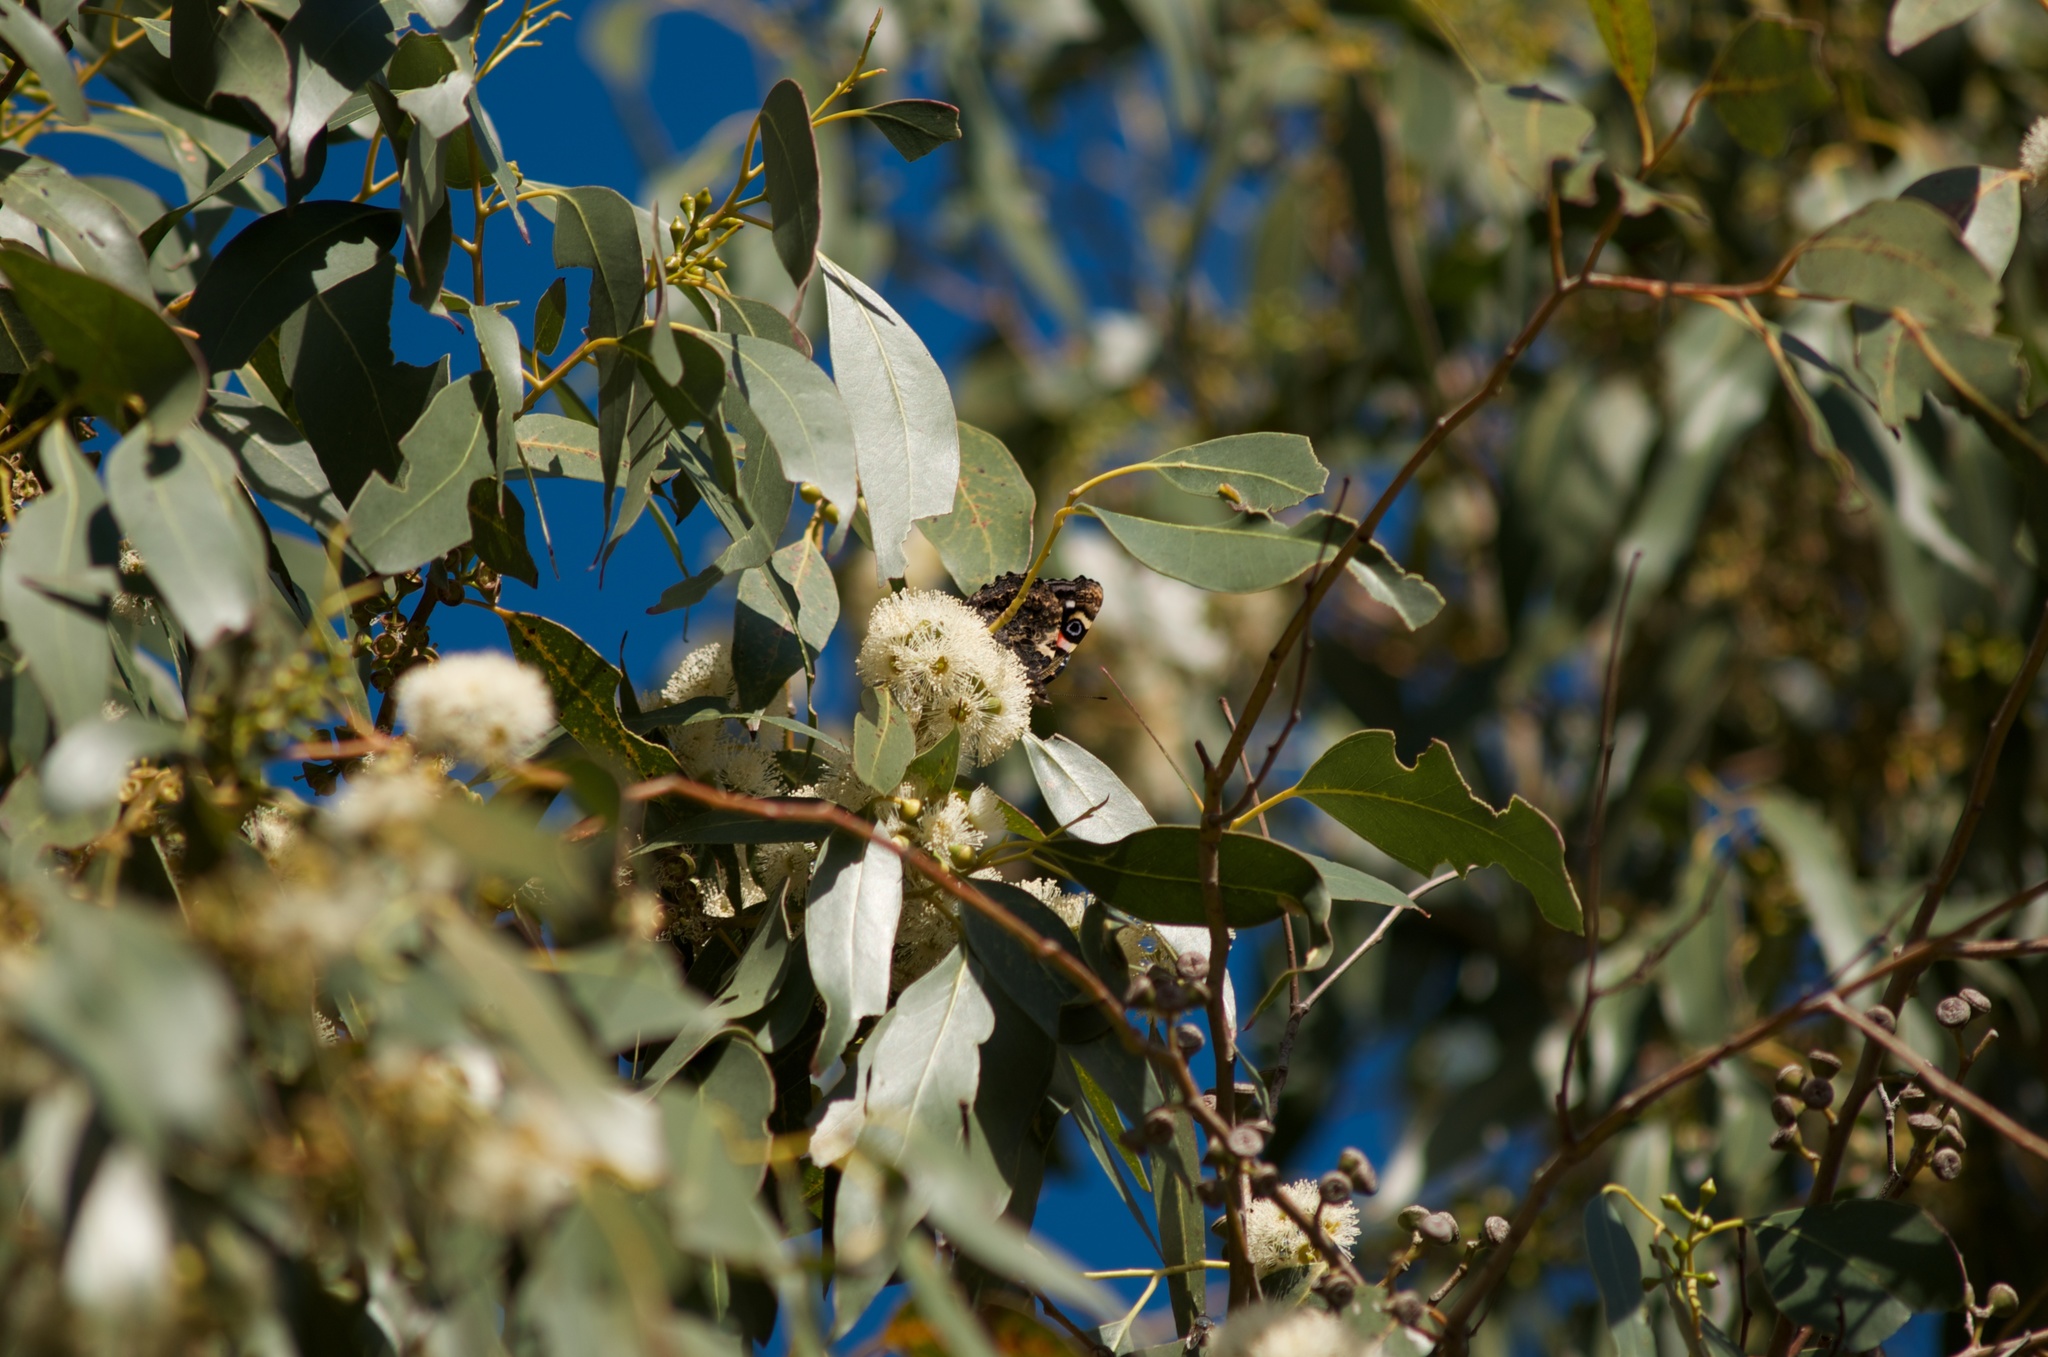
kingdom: Animalia
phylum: Arthropoda
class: Insecta
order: Lepidoptera
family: Nymphalidae
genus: Vanessa
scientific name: Vanessa gonerilla
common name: New zealand red admiral
